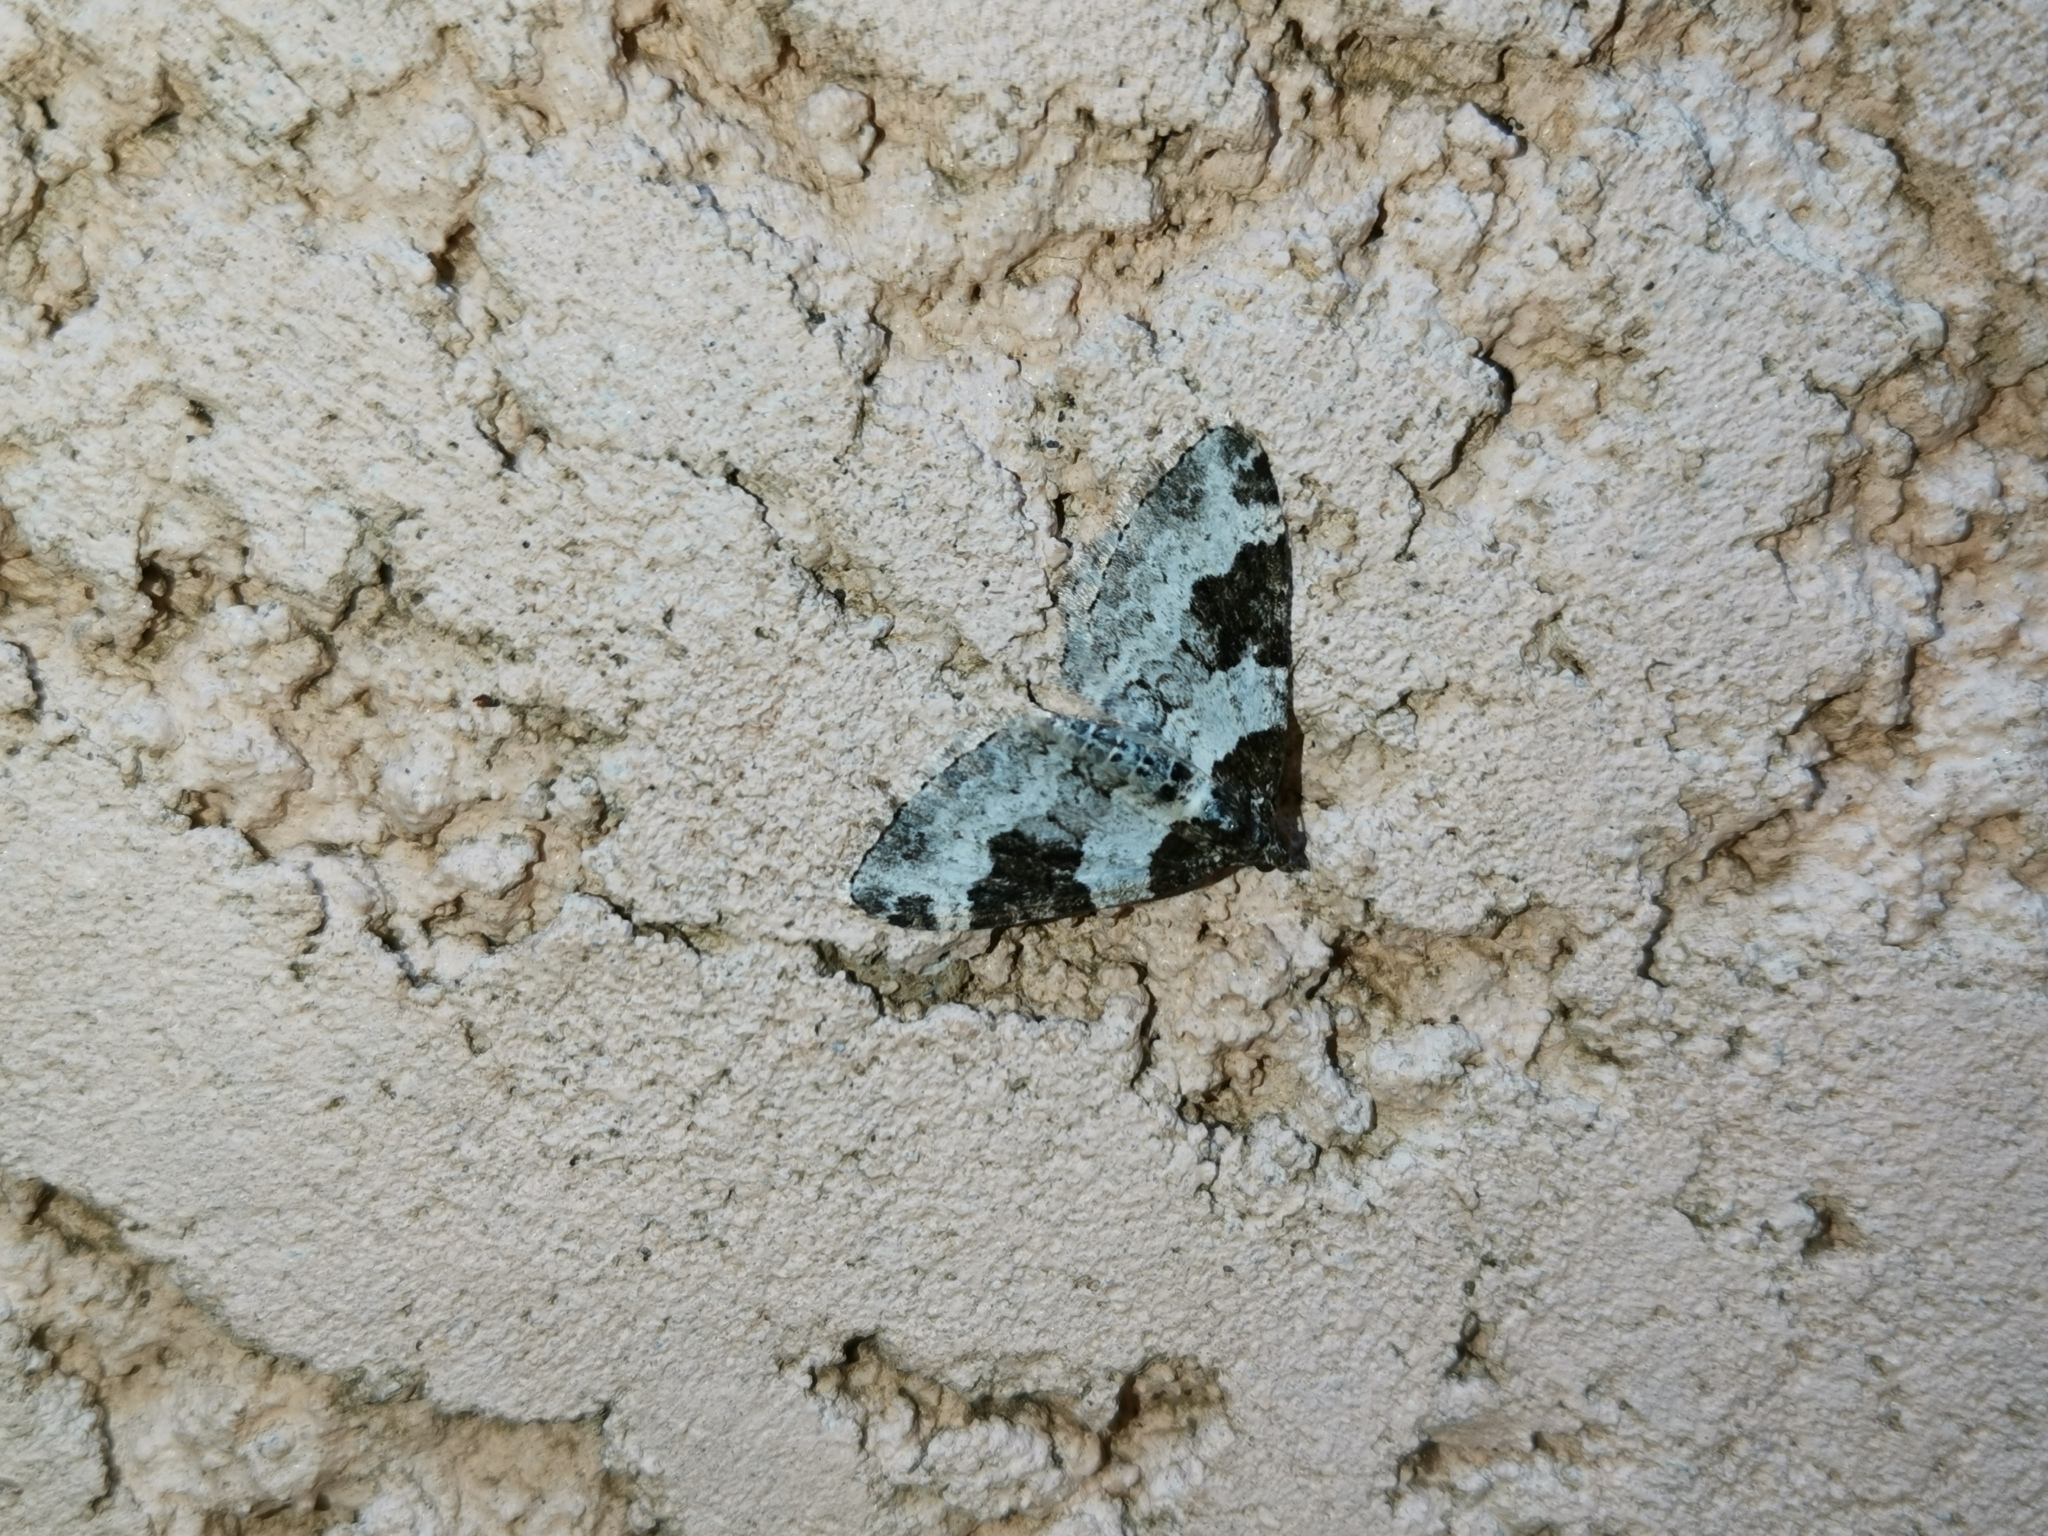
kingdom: Animalia
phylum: Arthropoda
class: Insecta
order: Lepidoptera
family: Geometridae
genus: Xanthorhoe
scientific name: Xanthorhoe fluctuata
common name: Garden carpet
